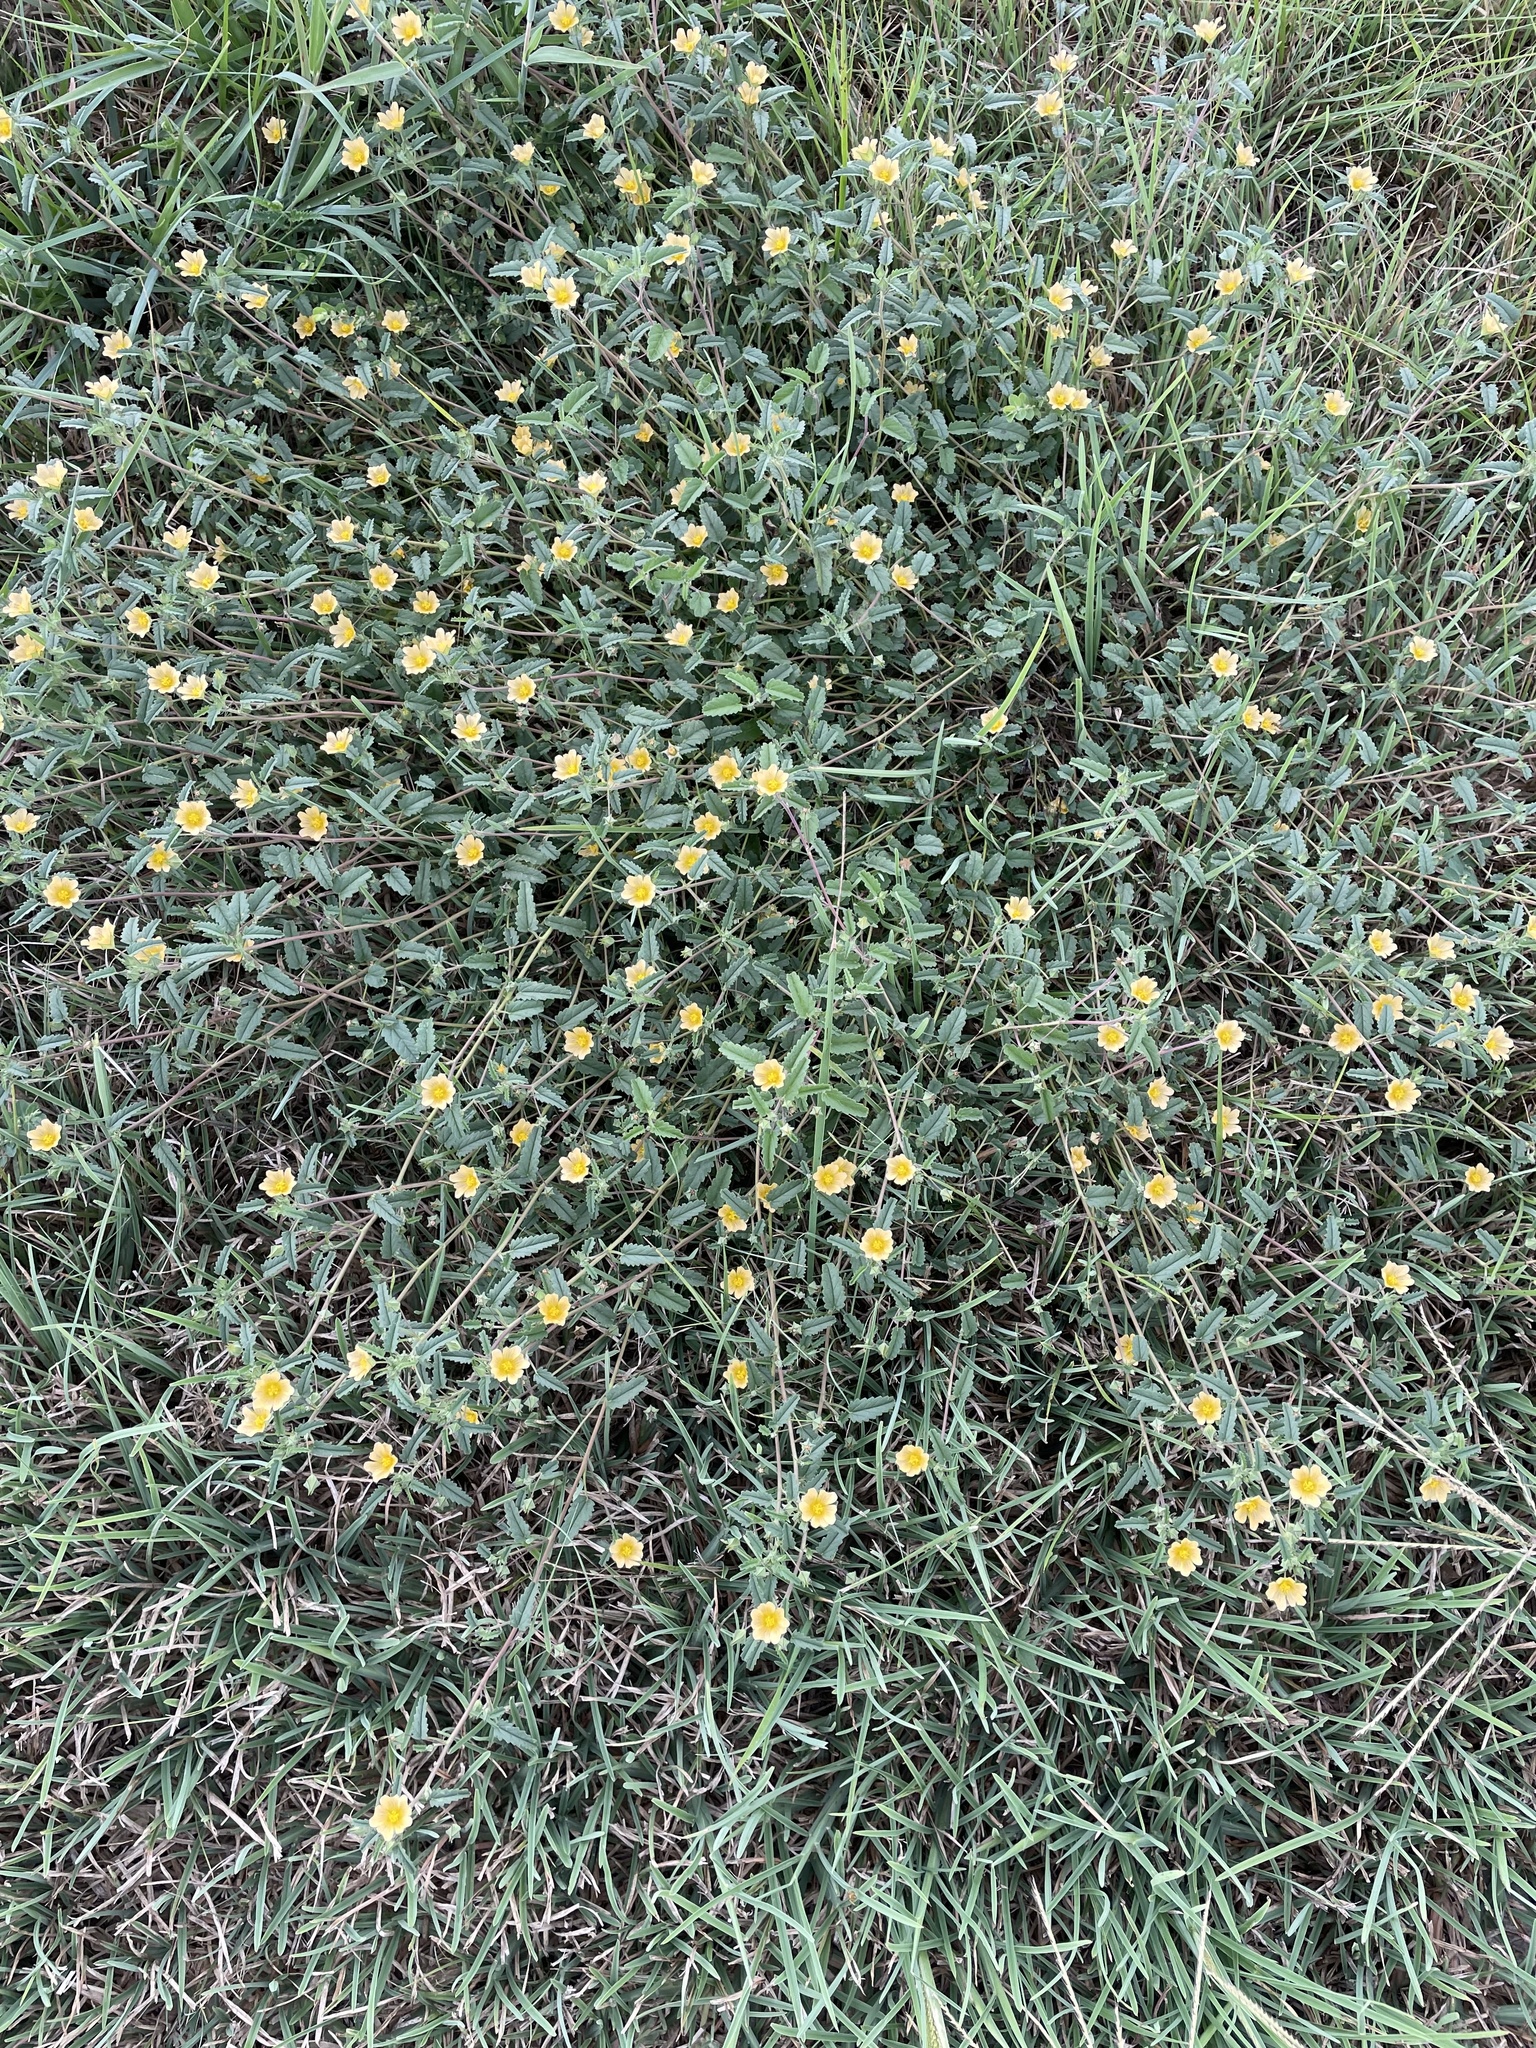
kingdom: Plantae
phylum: Tracheophyta
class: Magnoliopsida
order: Malvales
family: Malvaceae
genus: Sida
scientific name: Sida abutilifolia
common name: Spreading fanpetals
